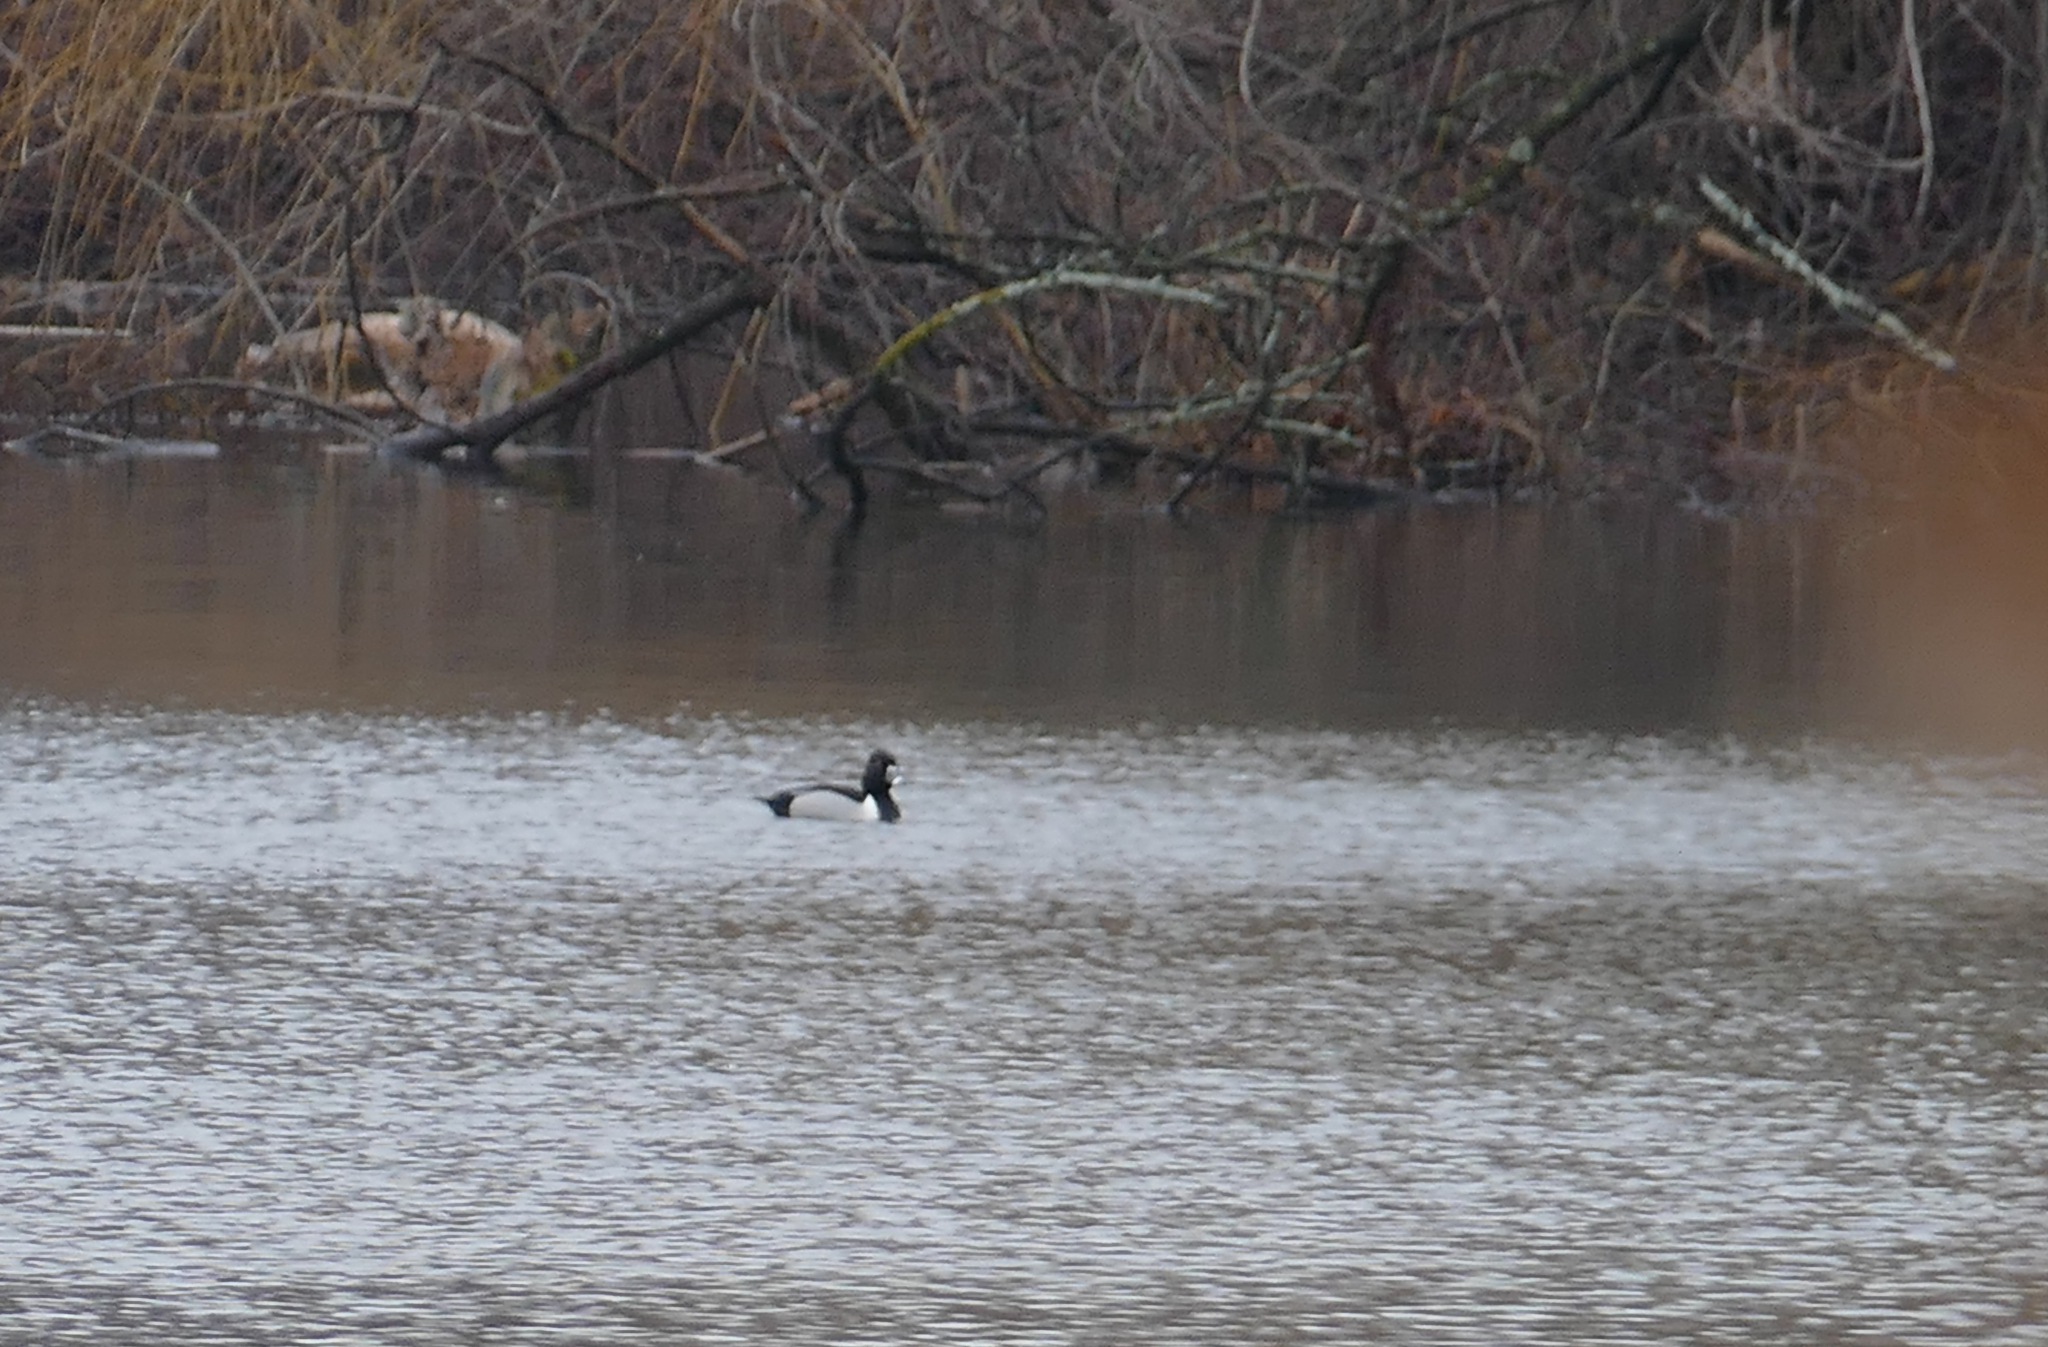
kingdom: Animalia
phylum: Chordata
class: Aves
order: Anseriformes
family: Anatidae
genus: Aythya
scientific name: Aythya collaris
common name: Ring-necked duck
